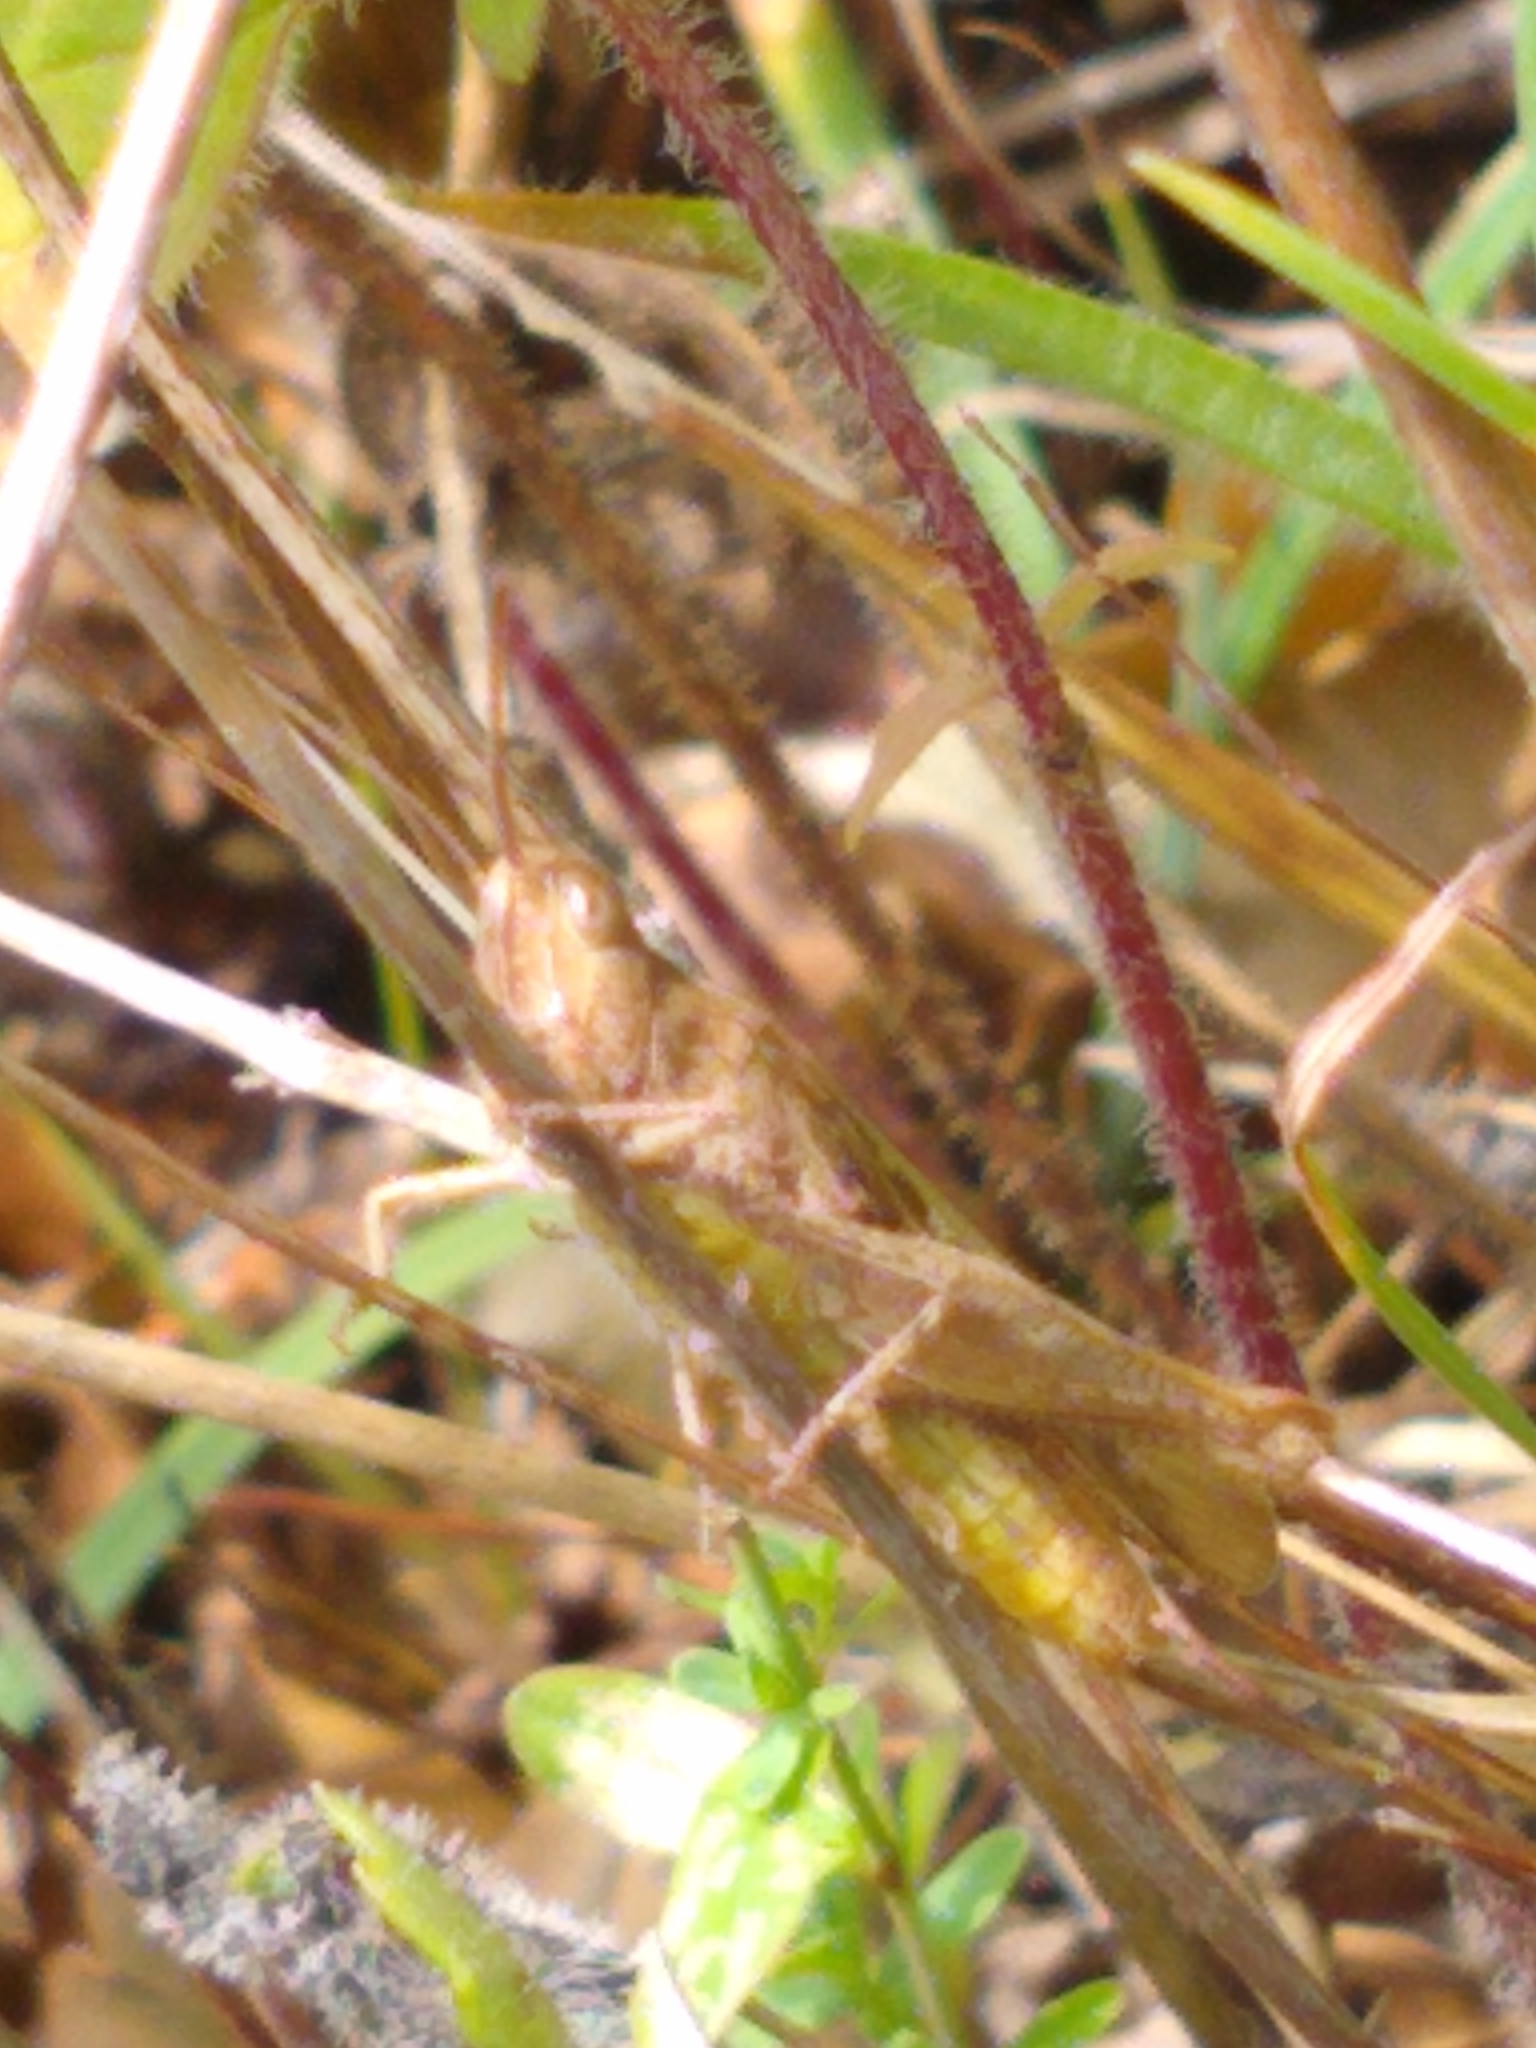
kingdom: Animalia
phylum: Arthropoda
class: Insecta
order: Orthoptera
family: Acrididae
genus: Chorthippus
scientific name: Chorthippus brunneus
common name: Field grasshopper
